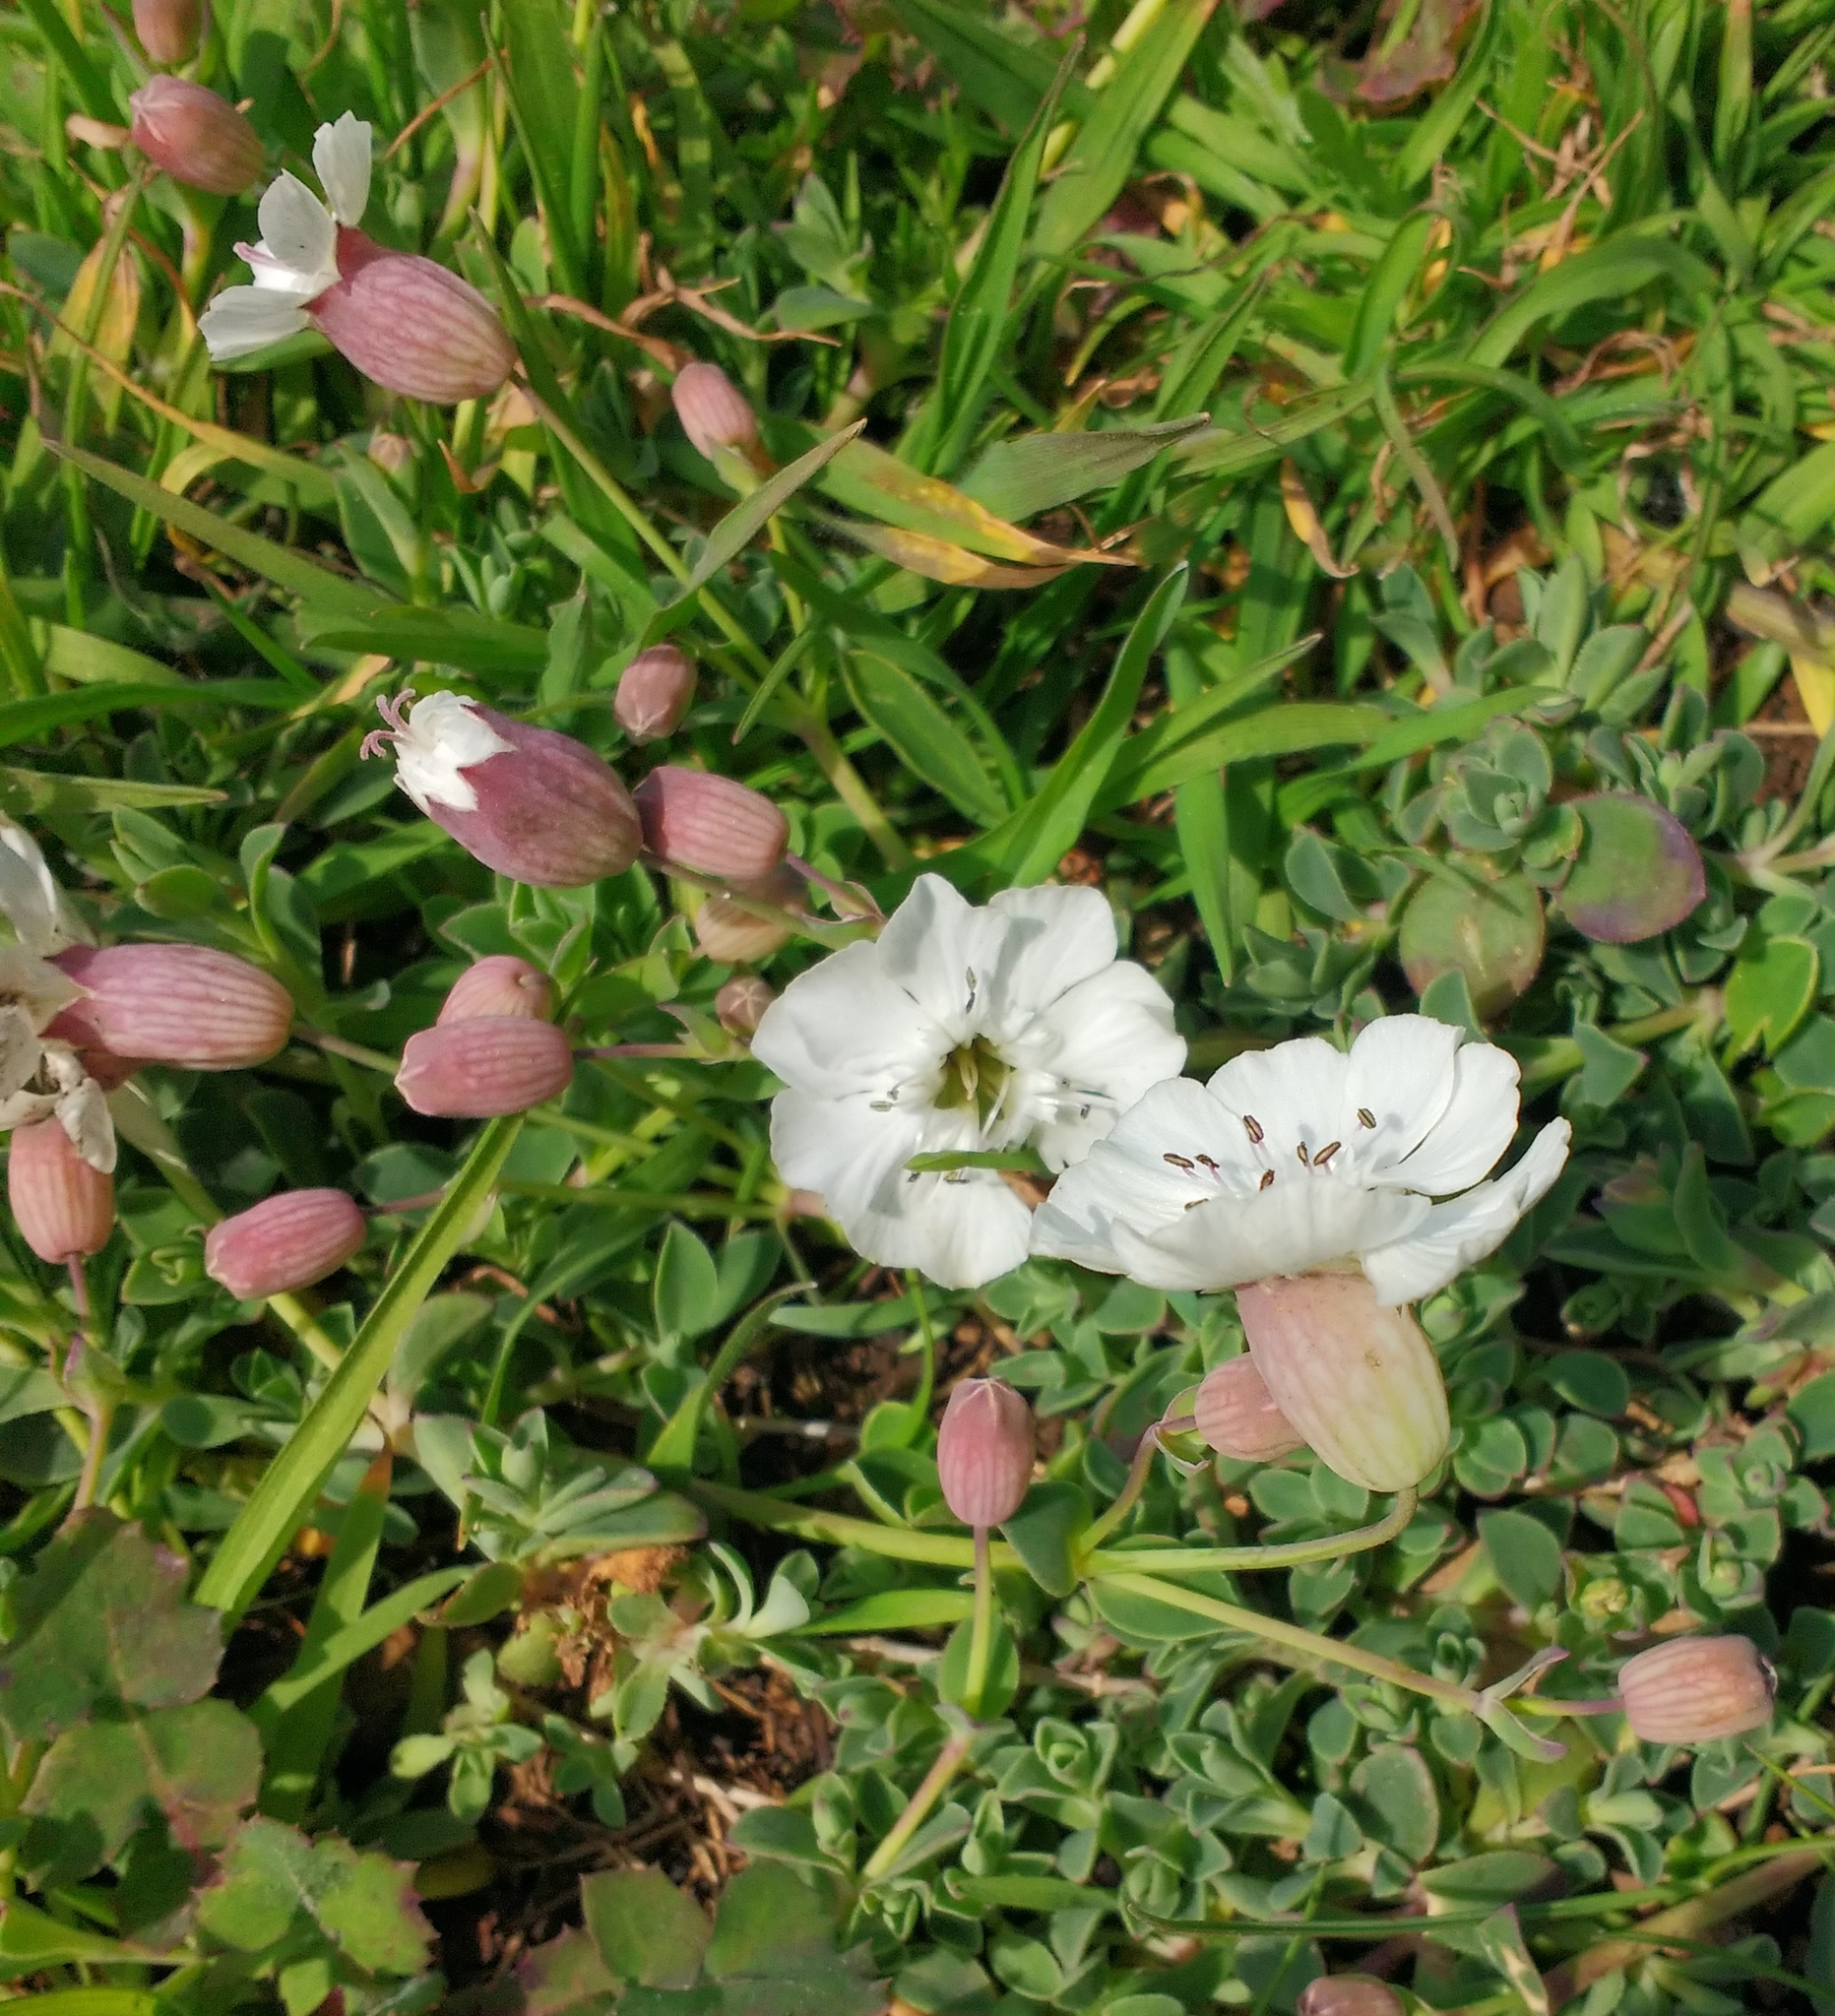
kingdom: Plantae
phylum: Tracheophyta
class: Magnoliopsida
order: Caryophyllales
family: Caryophyllaceae
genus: Silene
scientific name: Silene uniflora
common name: Sea campion
